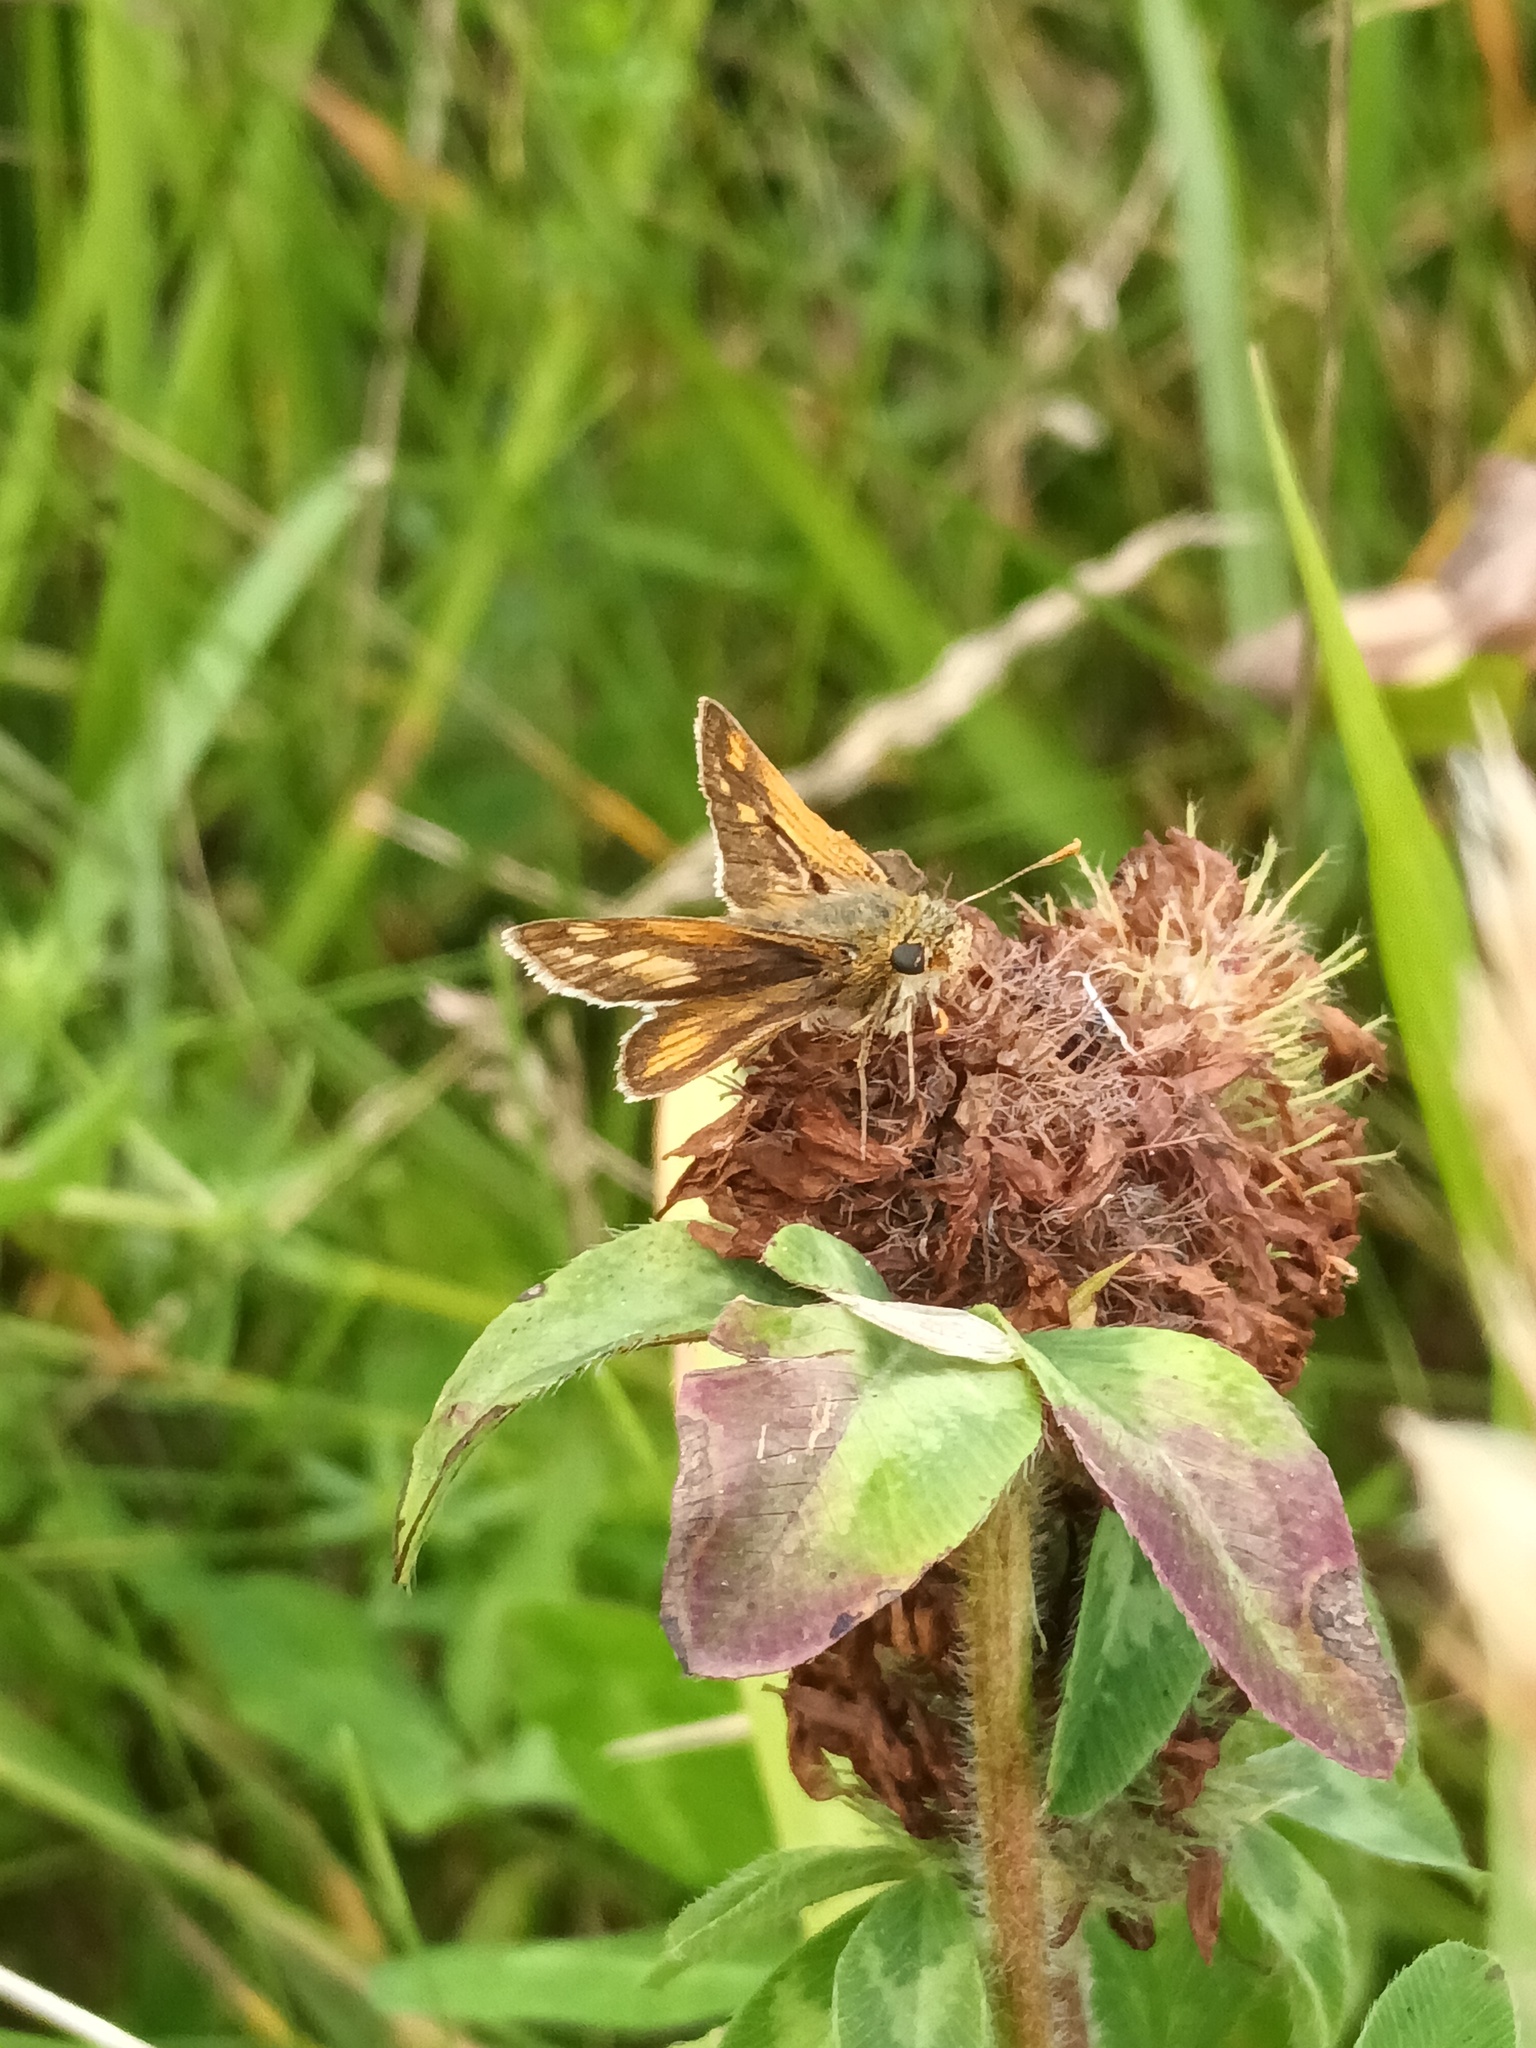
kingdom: Animalia
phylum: Arthropoda
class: Insecta
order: Lepidoptera
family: Hesperiidae
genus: Polites
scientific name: Polites coras
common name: Peck's skipper
